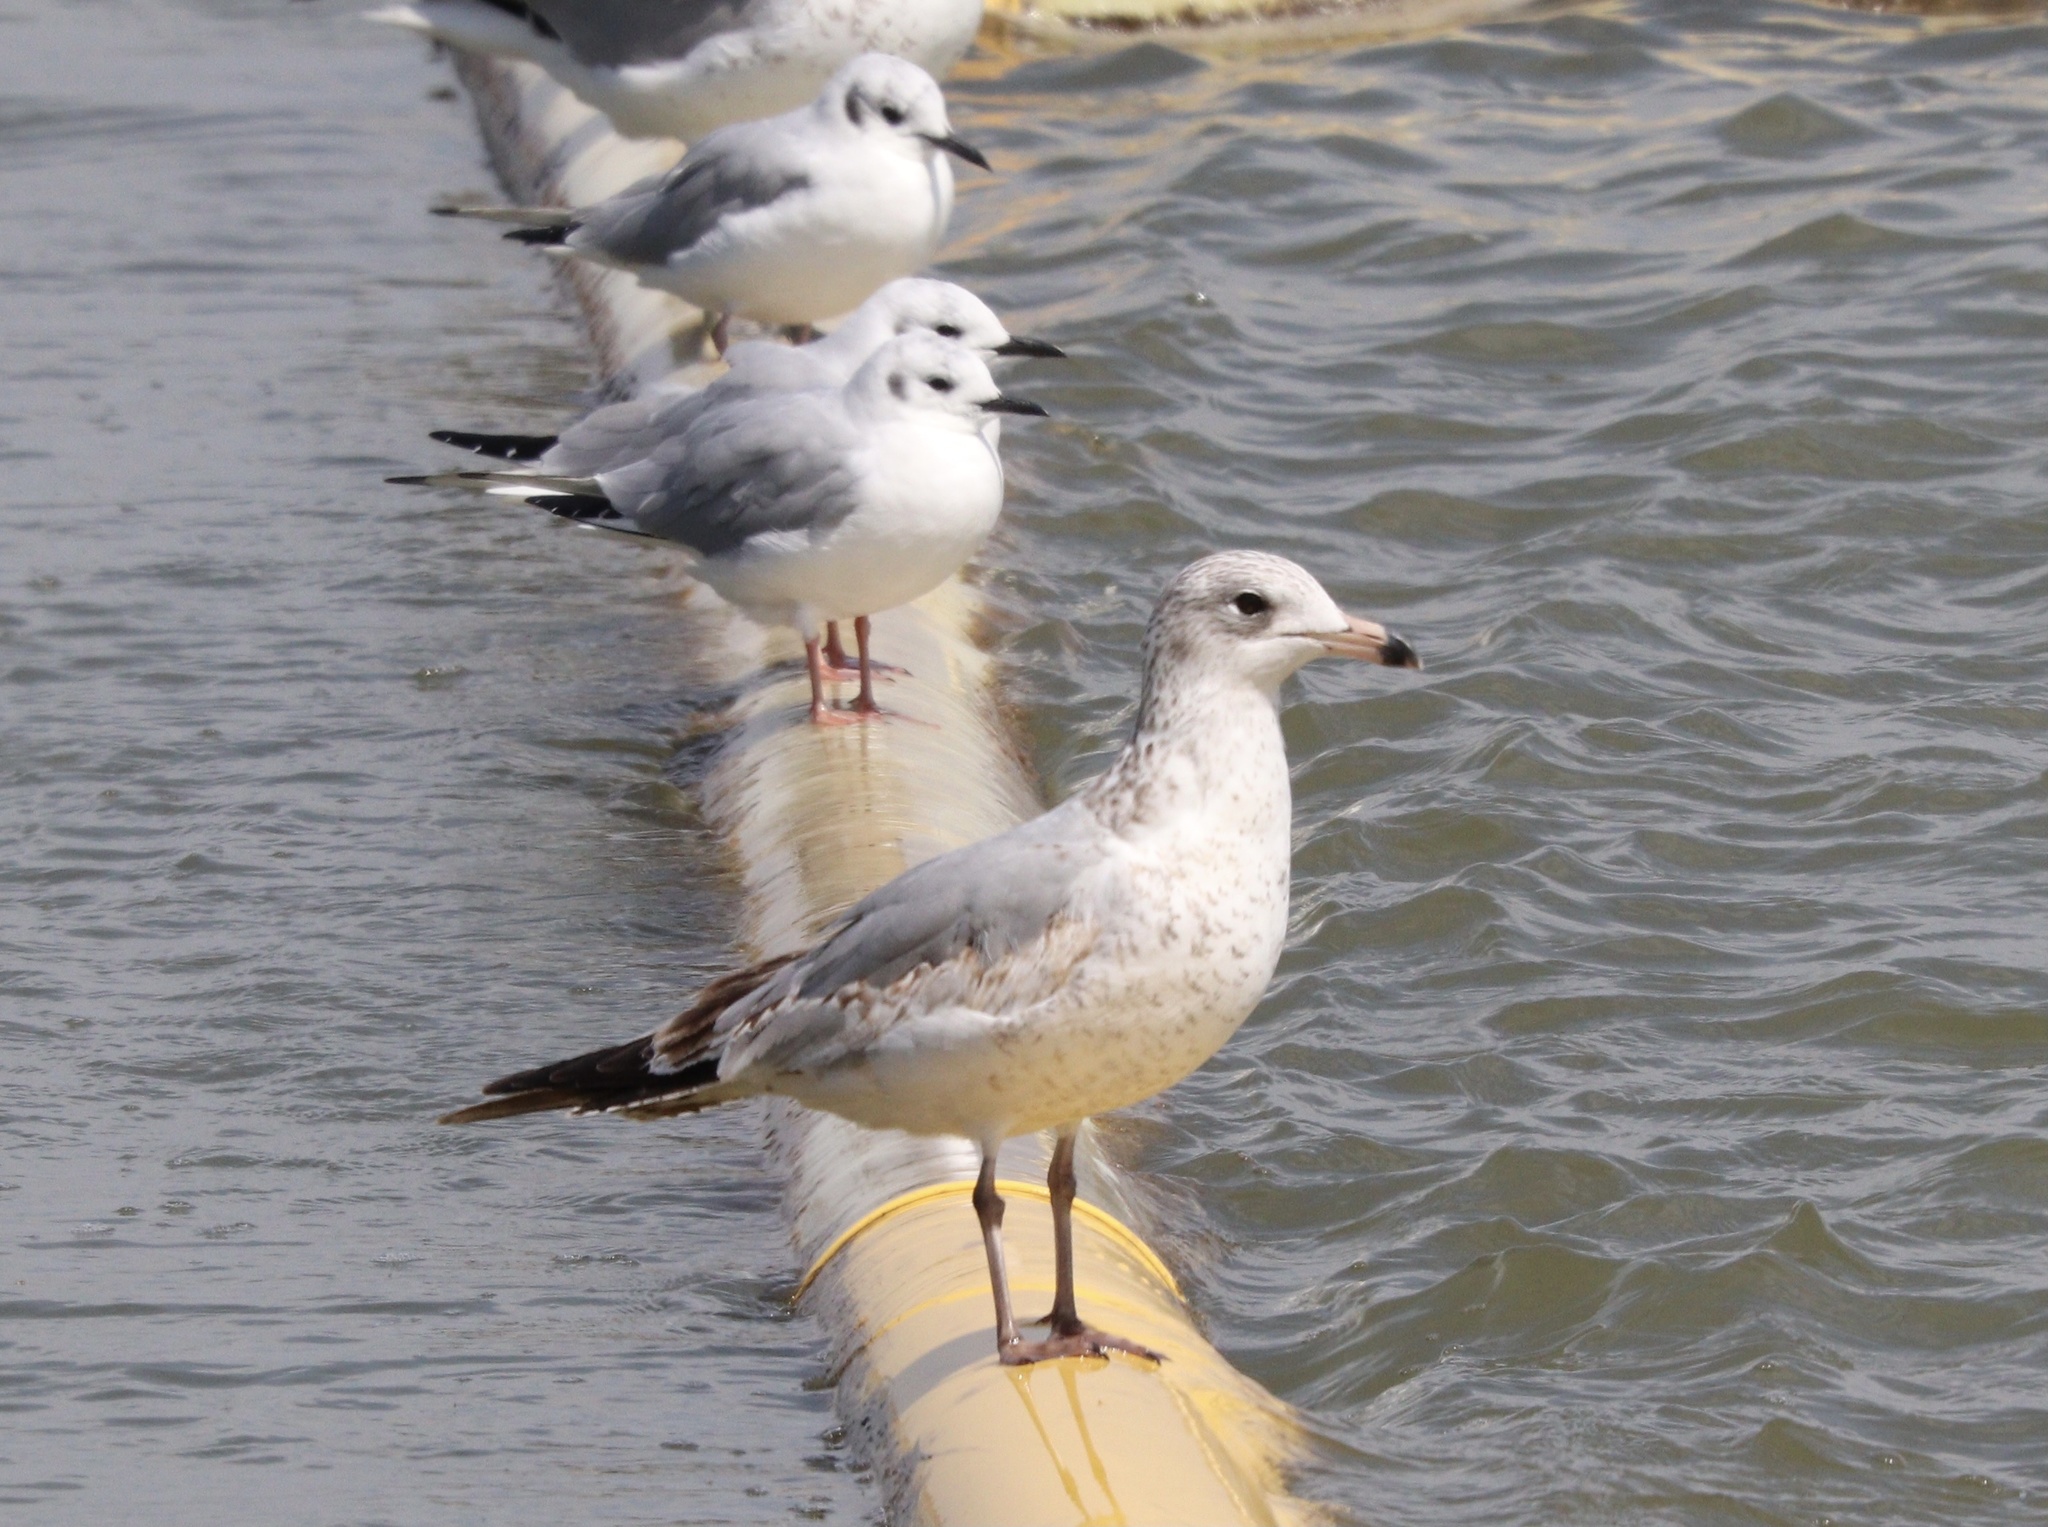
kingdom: Animalia
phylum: Chordata
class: Aves
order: Charadriiformes
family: Laridae
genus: Larus
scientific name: Larus delawarensis
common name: Ring-billed gull
